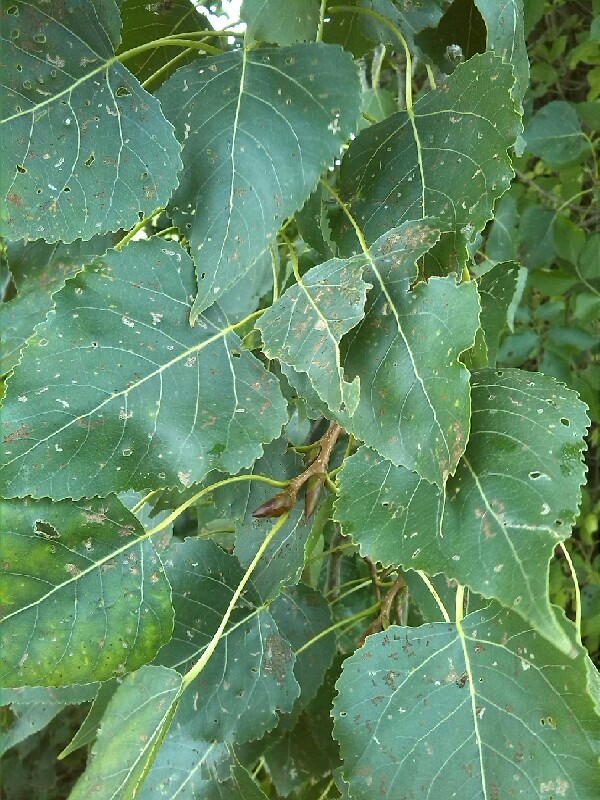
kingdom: Plantae
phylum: Tracheophyta
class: Magnoliopsida
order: Malpighiales
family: Salicaceae
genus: Populus
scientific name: Populus canadensis
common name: Carolina poplar
